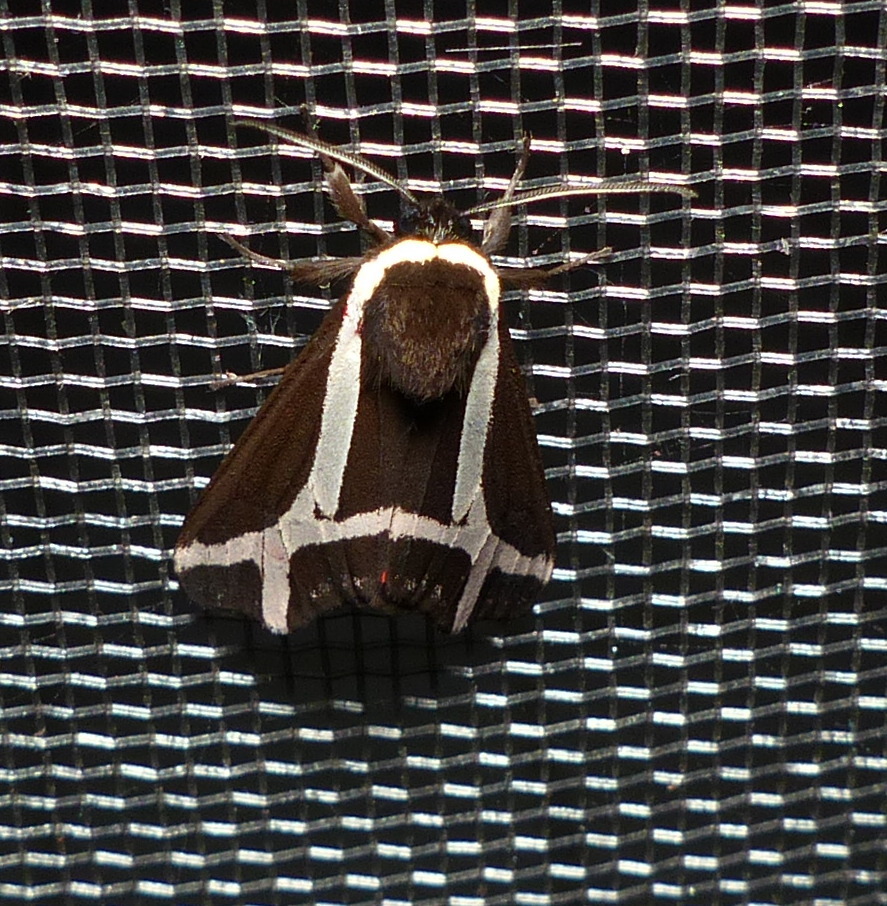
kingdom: Animalia
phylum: Arthropoda
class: Insecta
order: Lepidoptera
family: Erebidae
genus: Dysschema
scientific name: Dysschema sacrifica
